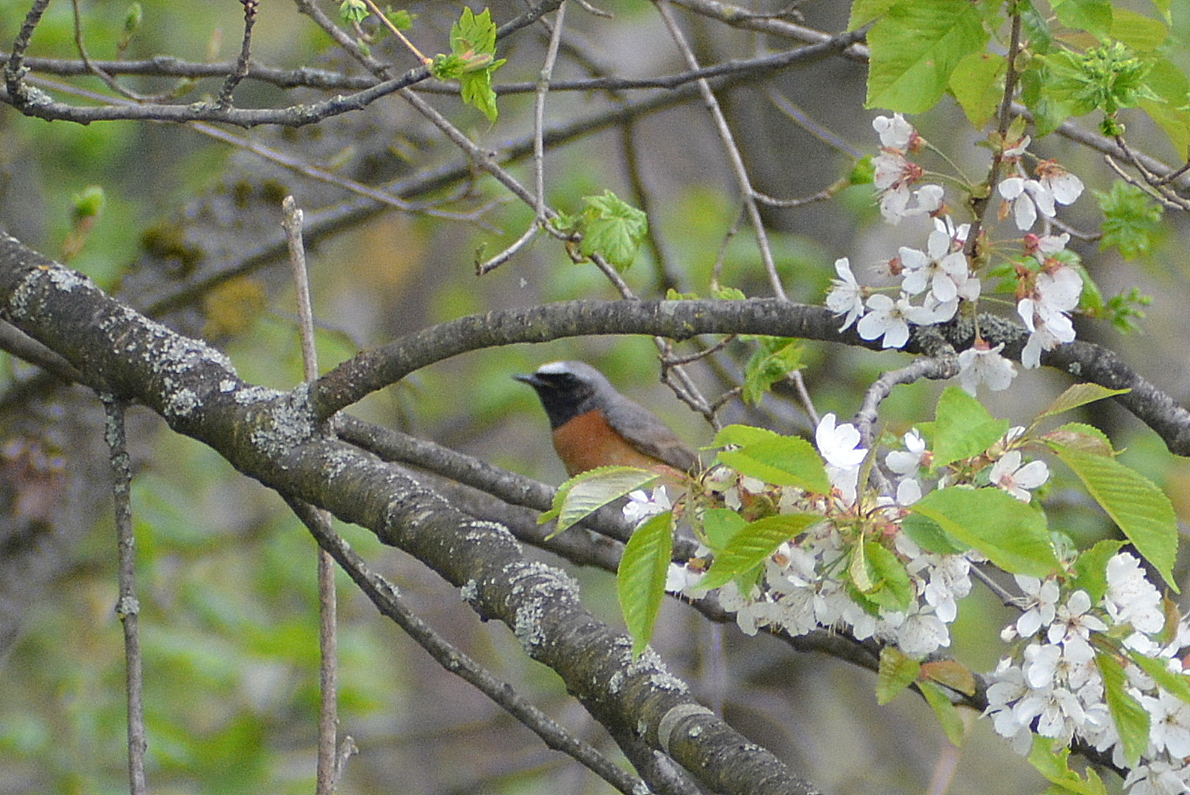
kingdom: Animalia
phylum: Chordata
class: Aves
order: Passeriformes
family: Muscicapidae
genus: Phoenicurus
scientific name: Phoenicurus phoenicurus
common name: Common redstart
